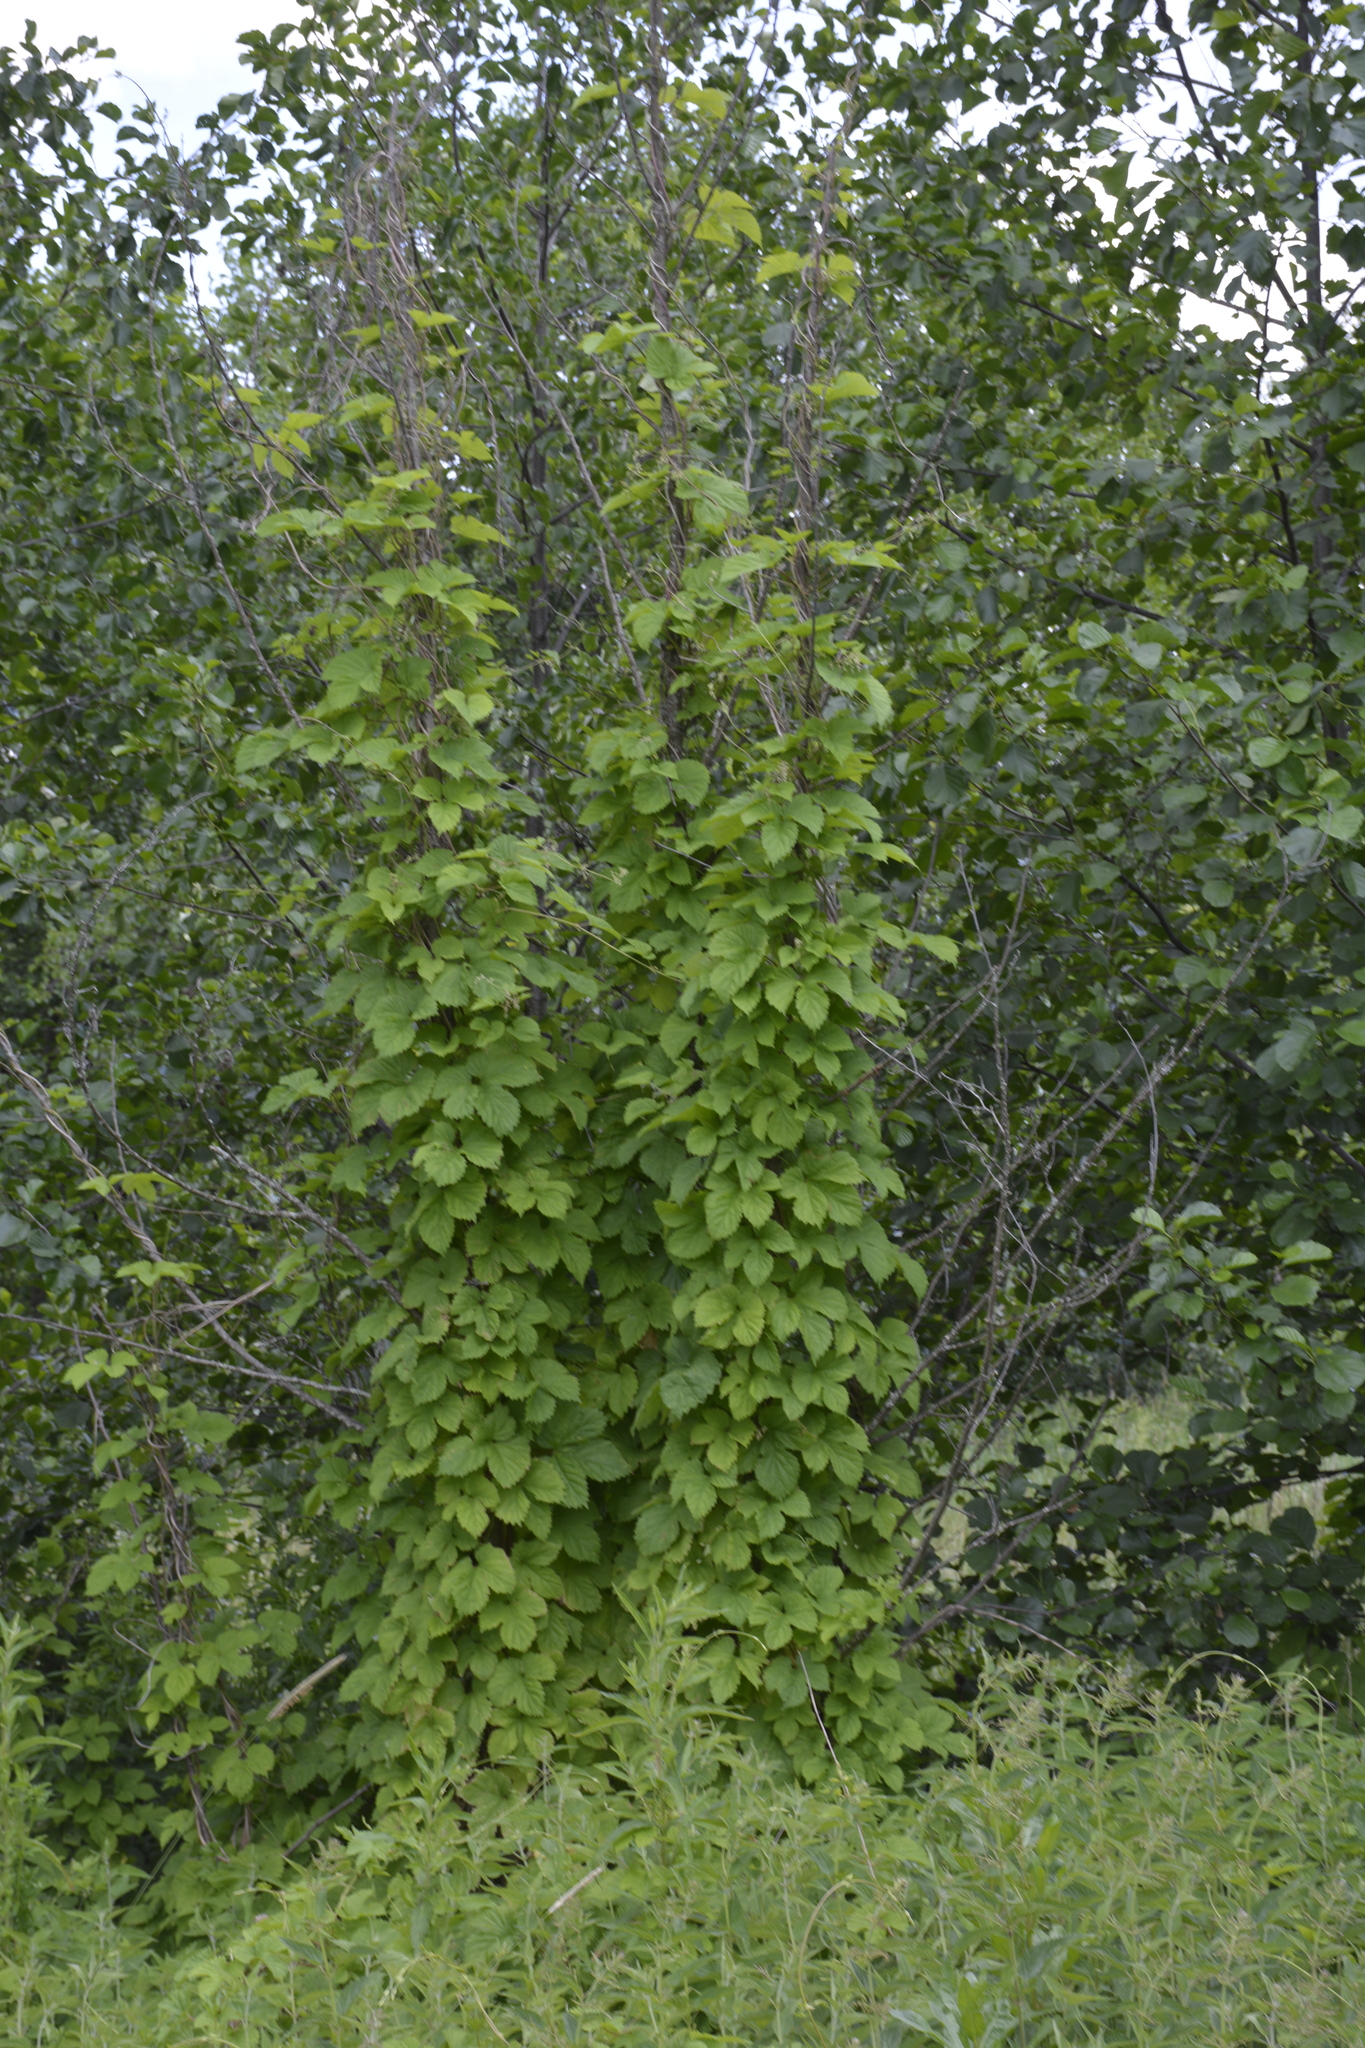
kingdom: Plantae
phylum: Tracheophyta
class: Magnoliopsida
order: Rosales
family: Cannabaceae
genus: Humulus
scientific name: Humulus lupulus
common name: Hop
